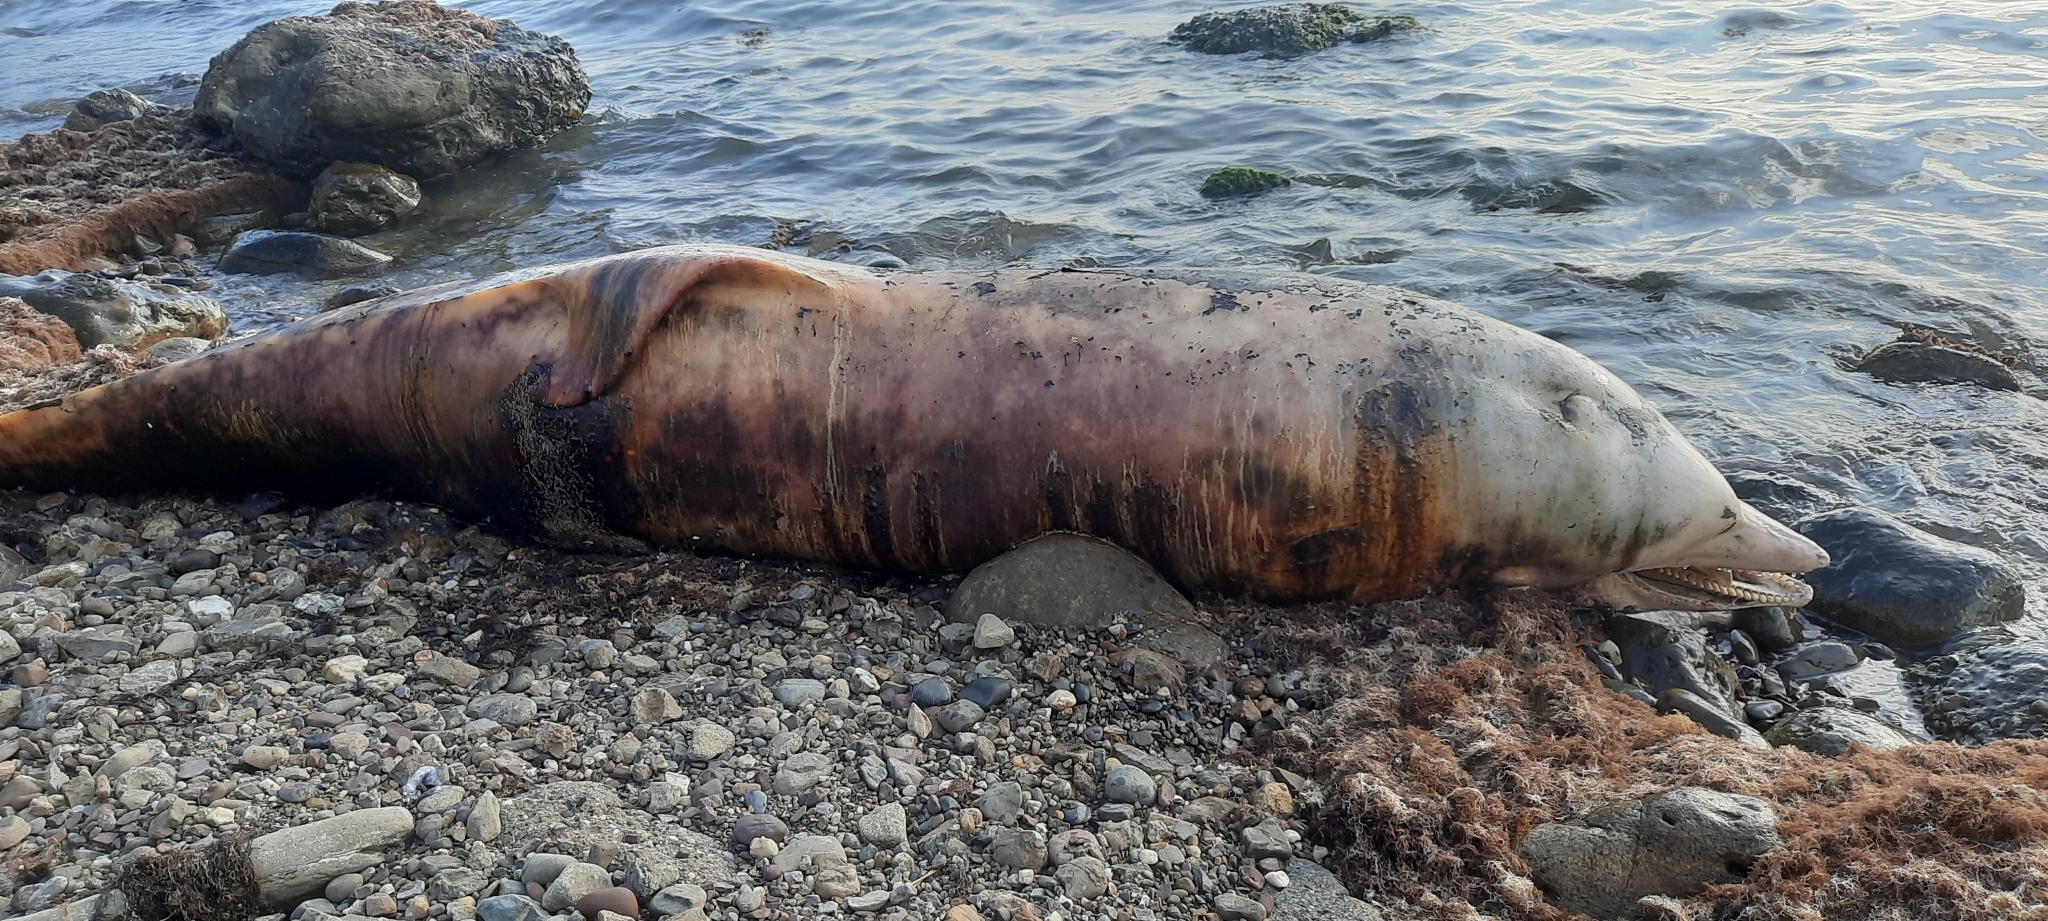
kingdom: Animalia
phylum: Chordata
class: Mammalia
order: Cetacea
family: Delphinidae
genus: Tursiops
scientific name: Tursiops truncatus
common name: Bottlenose dolphin
